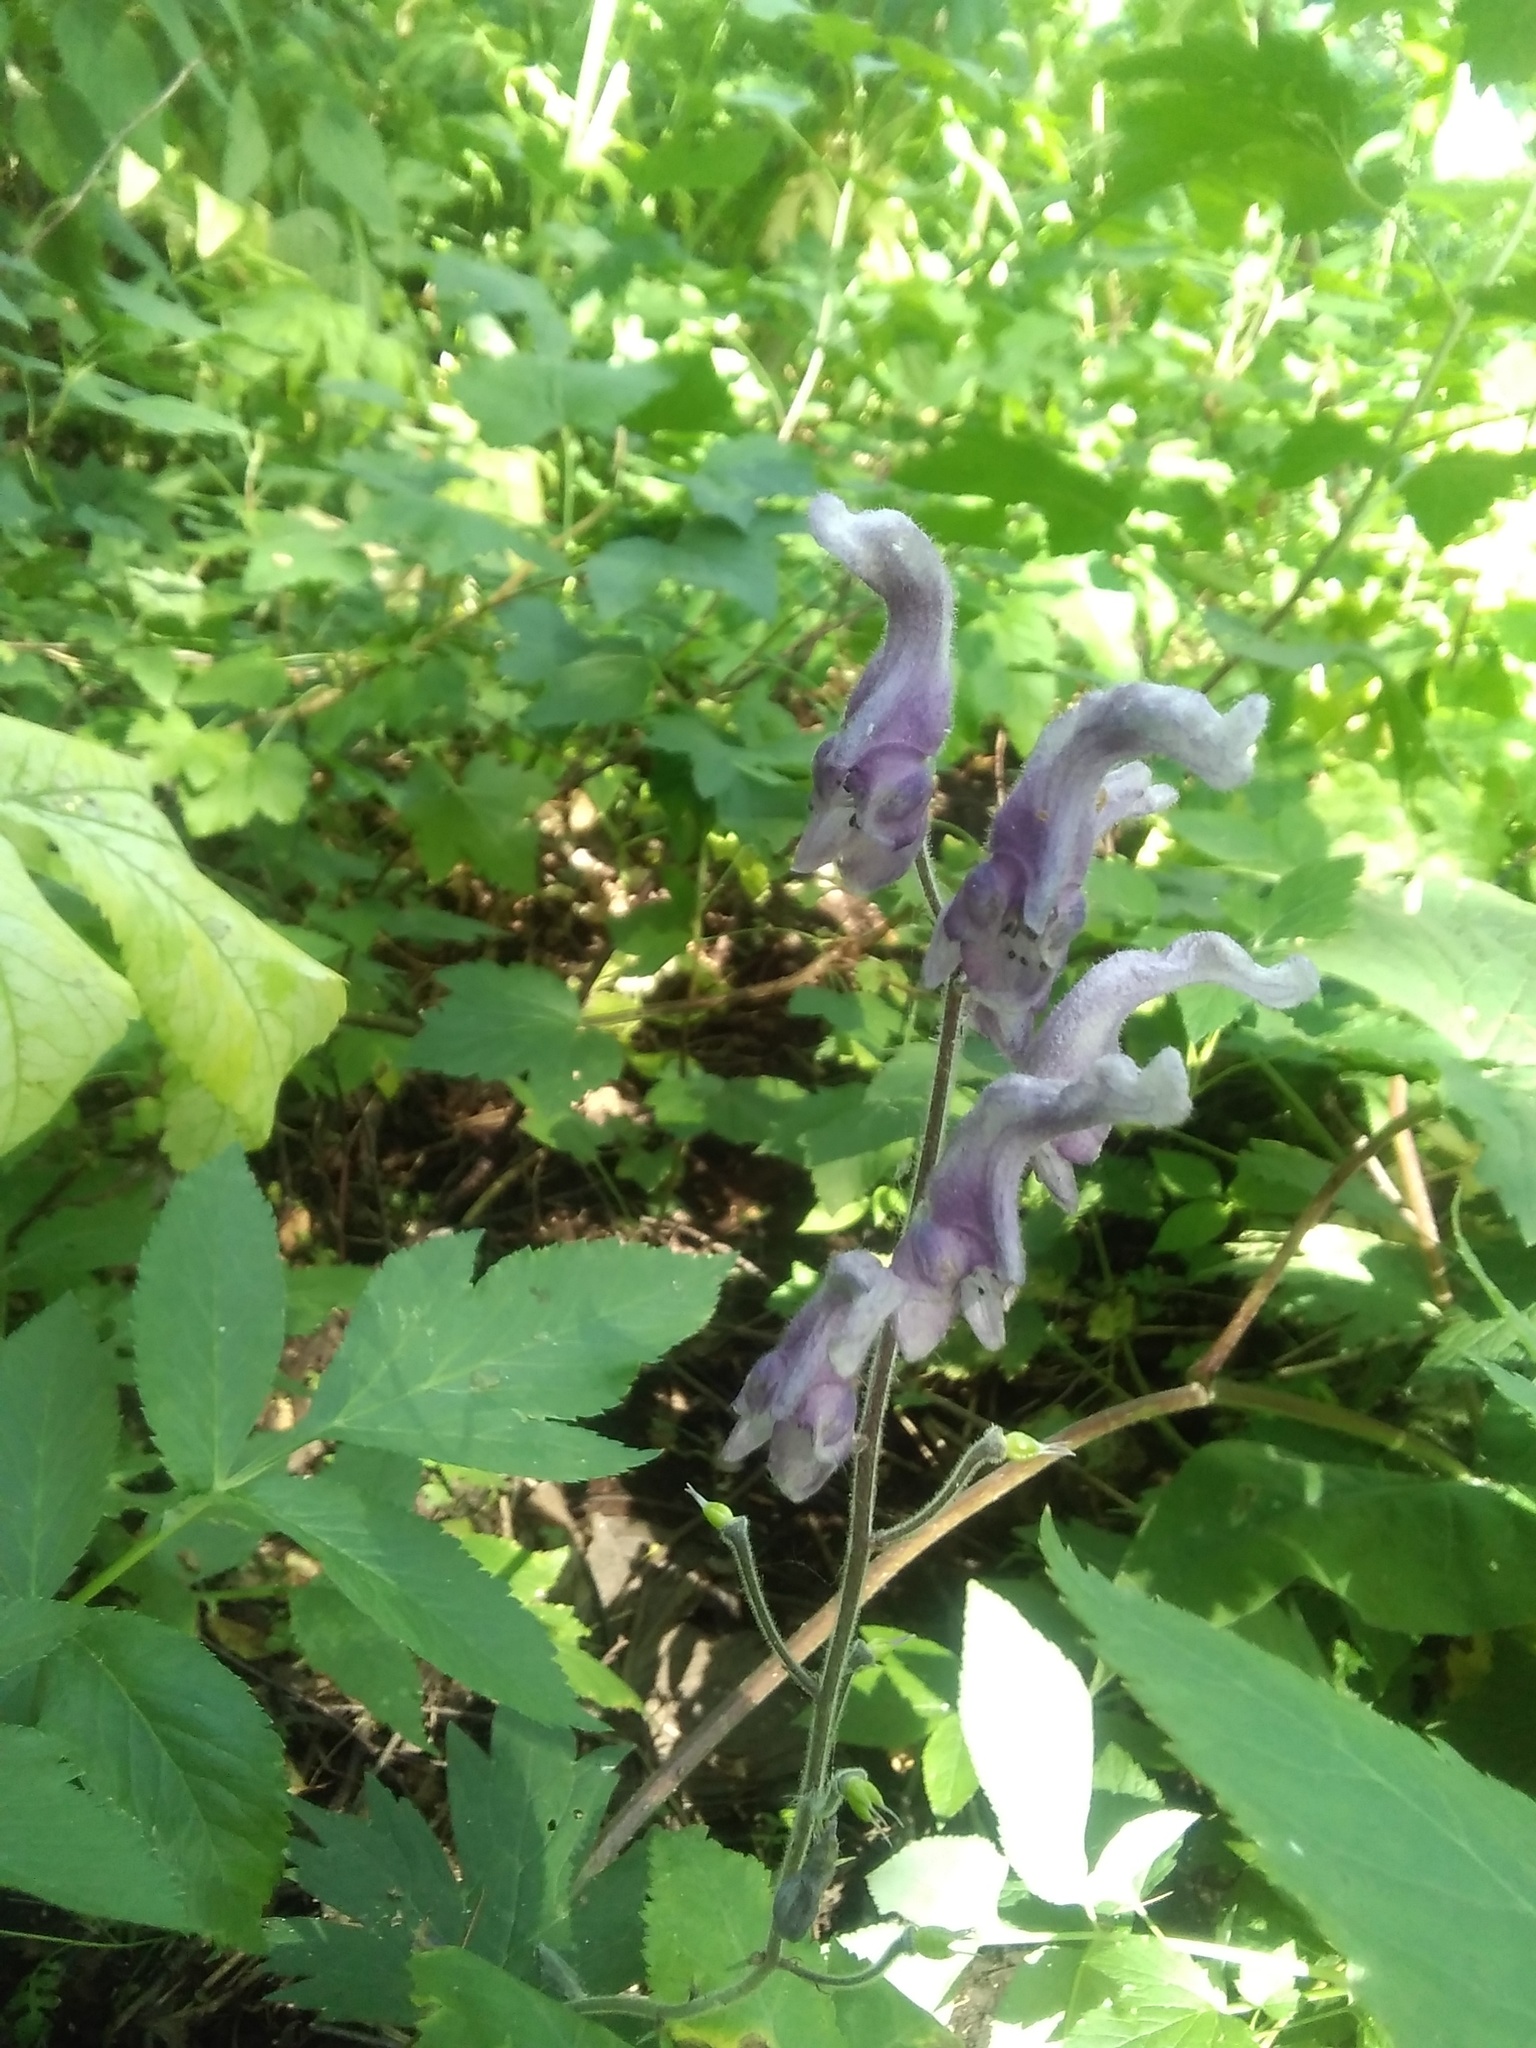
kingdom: Plantae
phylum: Tracheophyta
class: Magnoliopsida
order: Ranunculales
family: Ranunculaceae
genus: Aconitum
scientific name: Aconitum septentrionale
